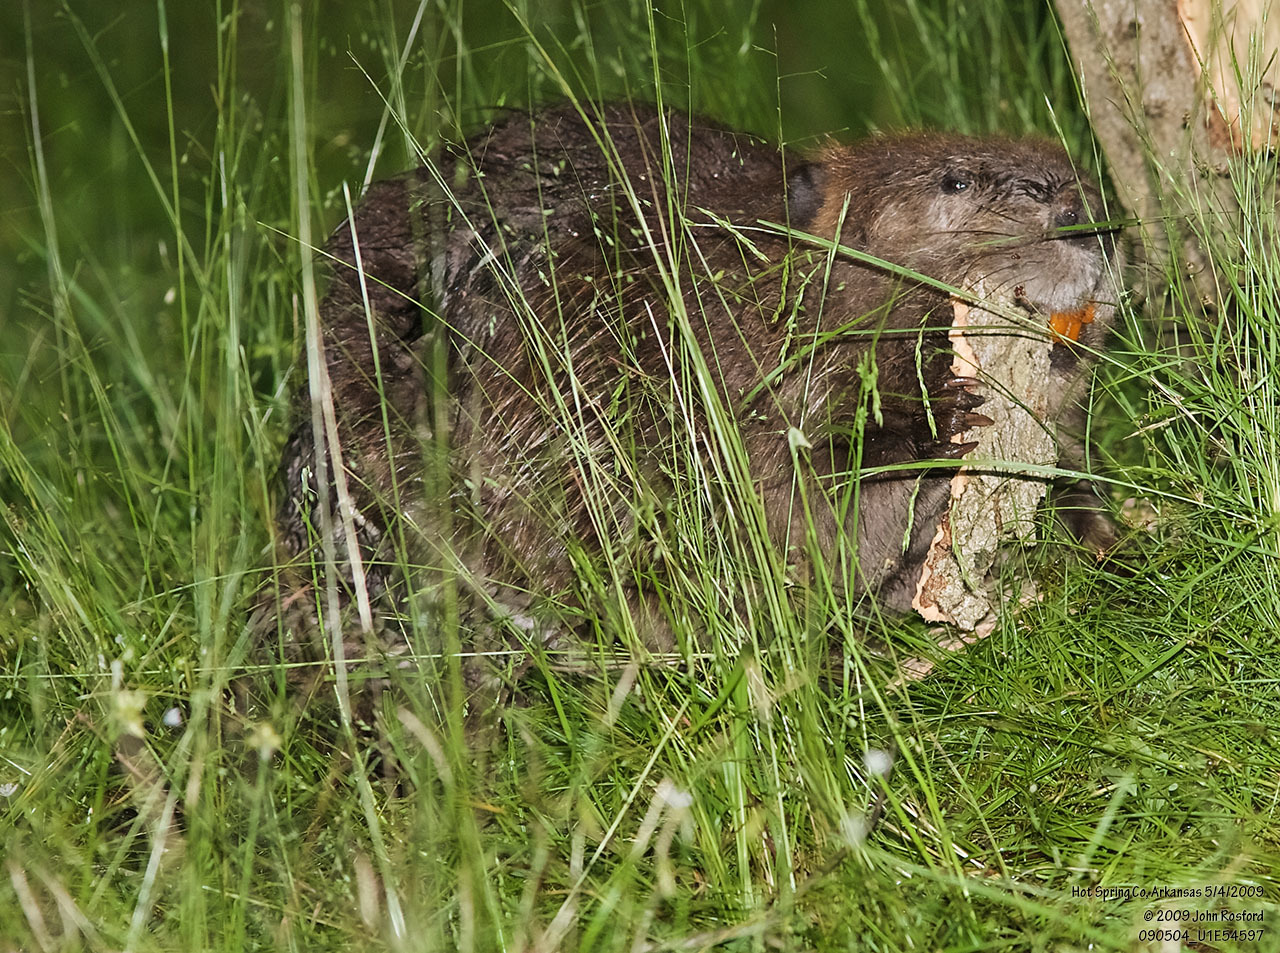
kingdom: Animalia
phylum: Chordata
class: Mammalia
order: Rodentia
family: Castoridae
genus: Castor
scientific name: Castor canadensis
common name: American beaver
